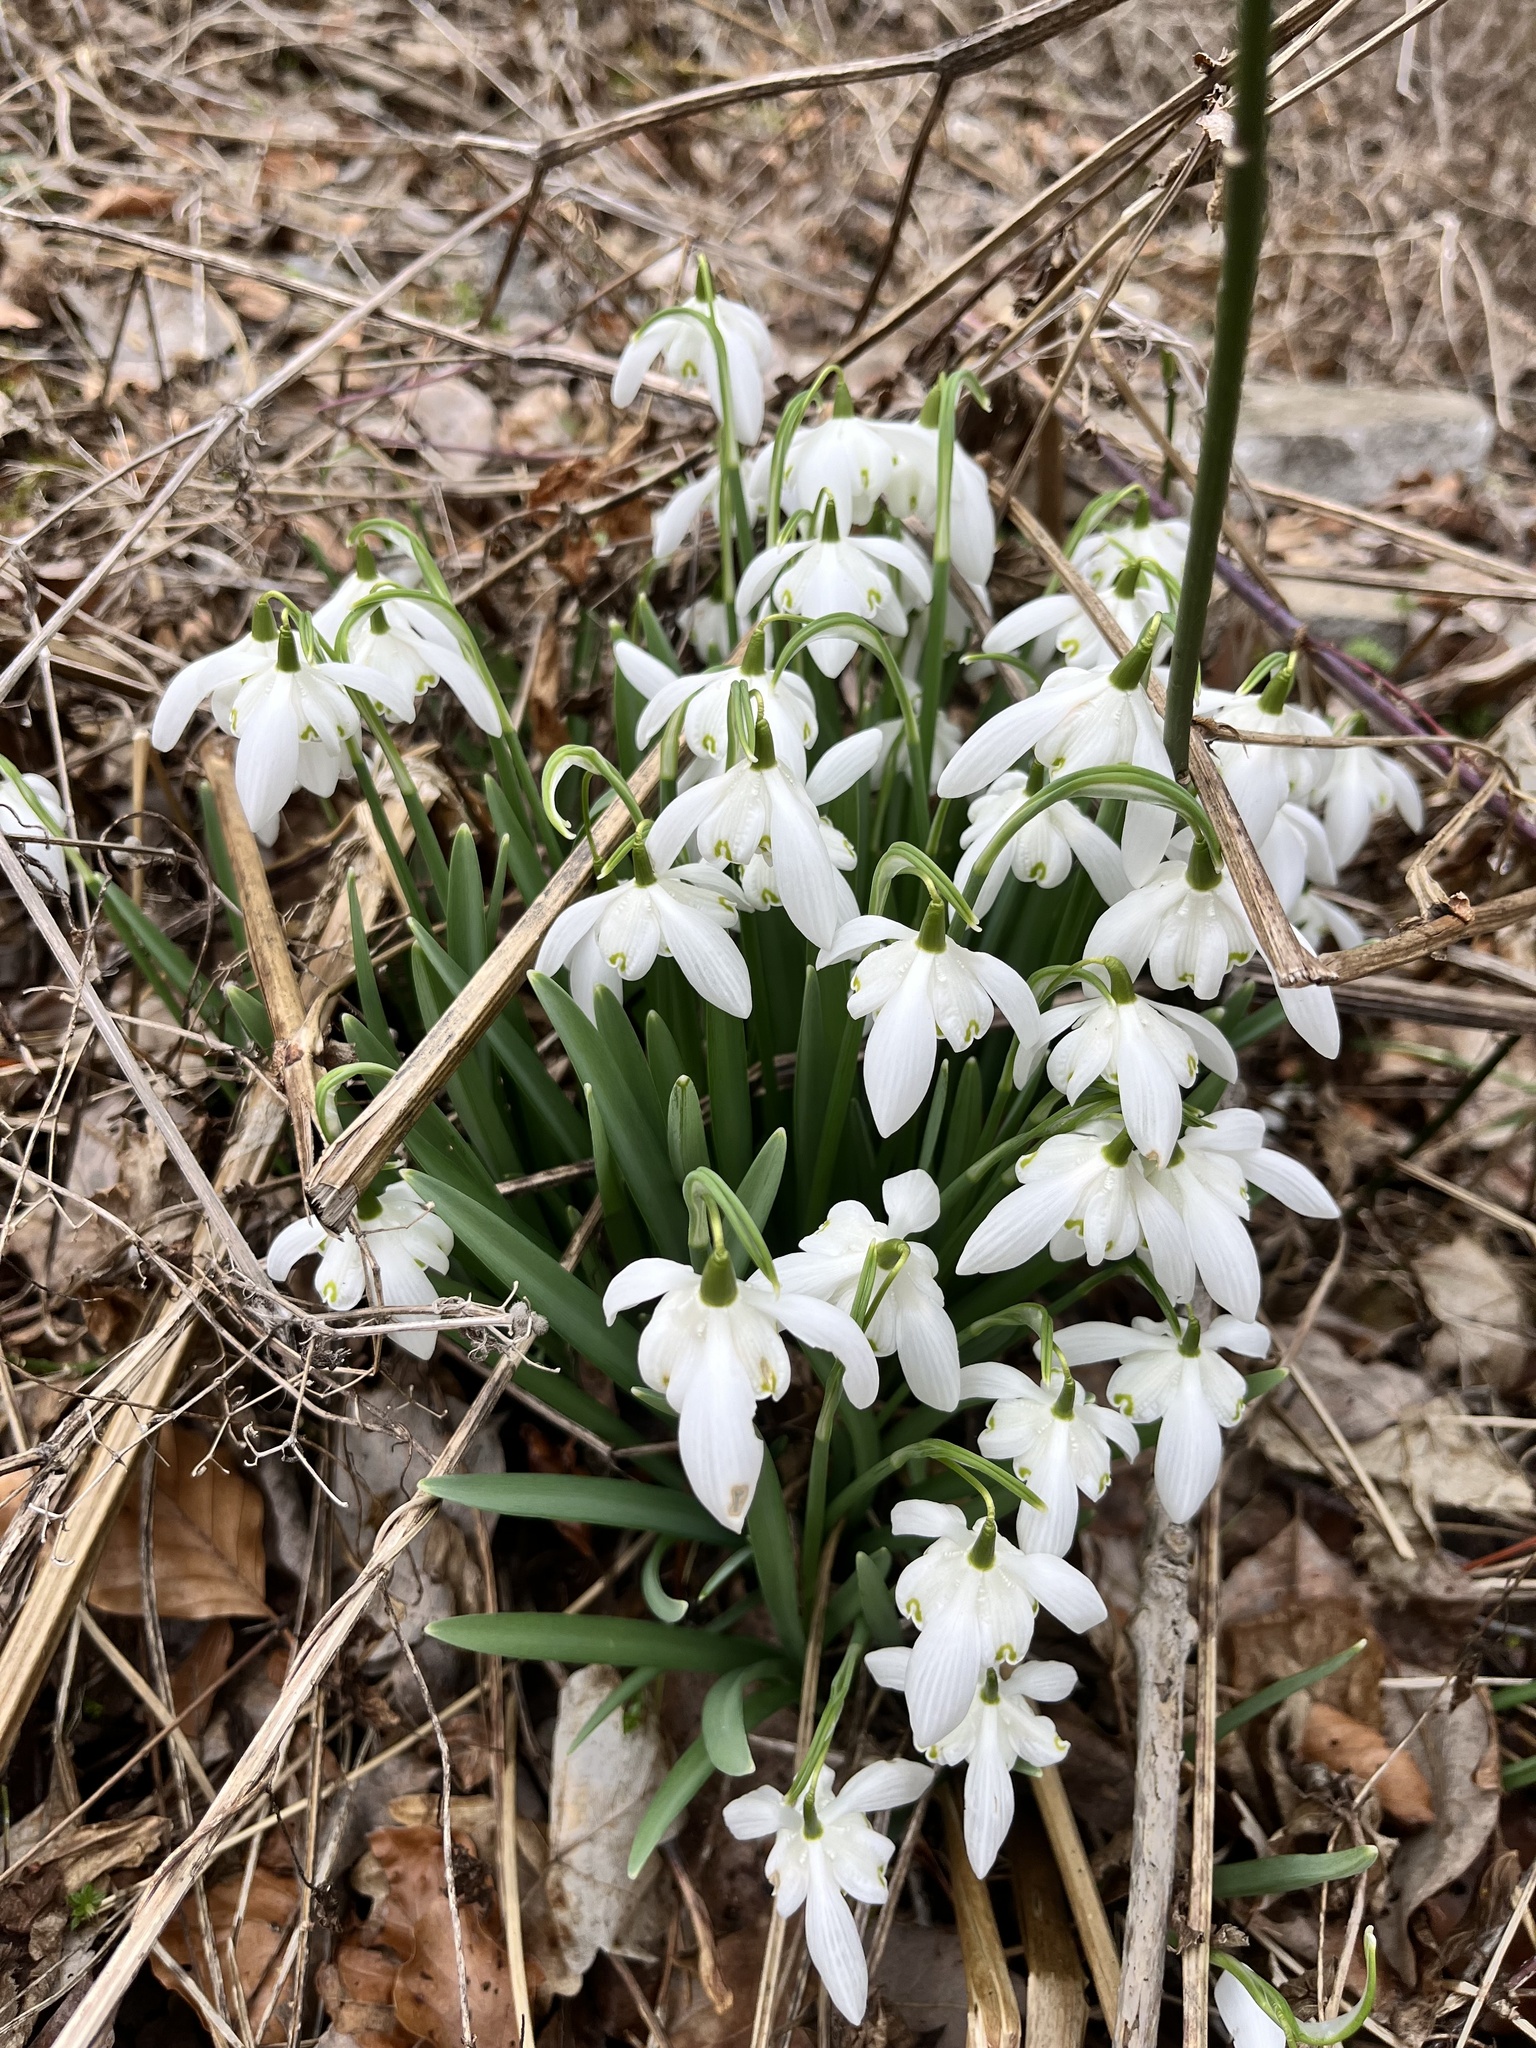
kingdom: Plantae
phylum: Tracheophyta
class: Liliopsida
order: Asparagales
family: Amaryllidaceae
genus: Galanthus
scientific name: Galanthus nivalis
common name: Snowdrop
